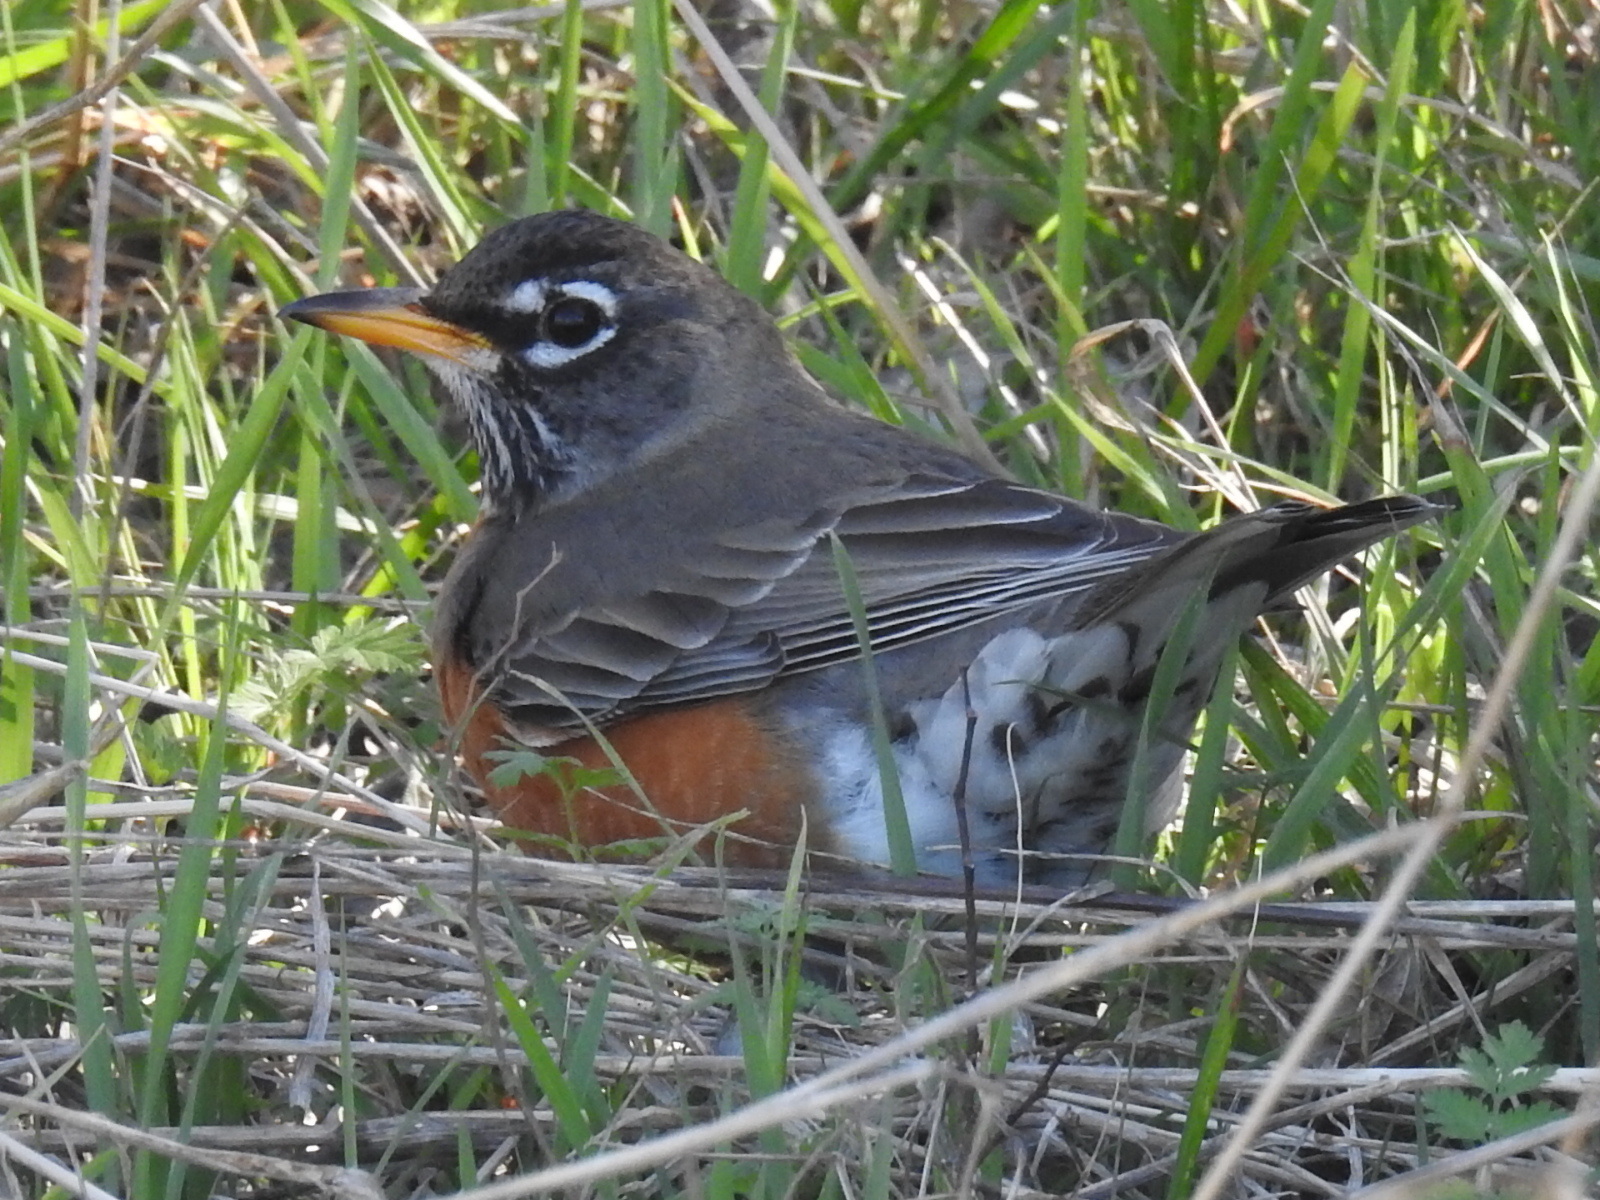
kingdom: Animalia
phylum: Chordata
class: Aves
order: Passeriformes
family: Turdidae
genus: Turdus
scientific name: Turdus migratorius
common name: American robin
